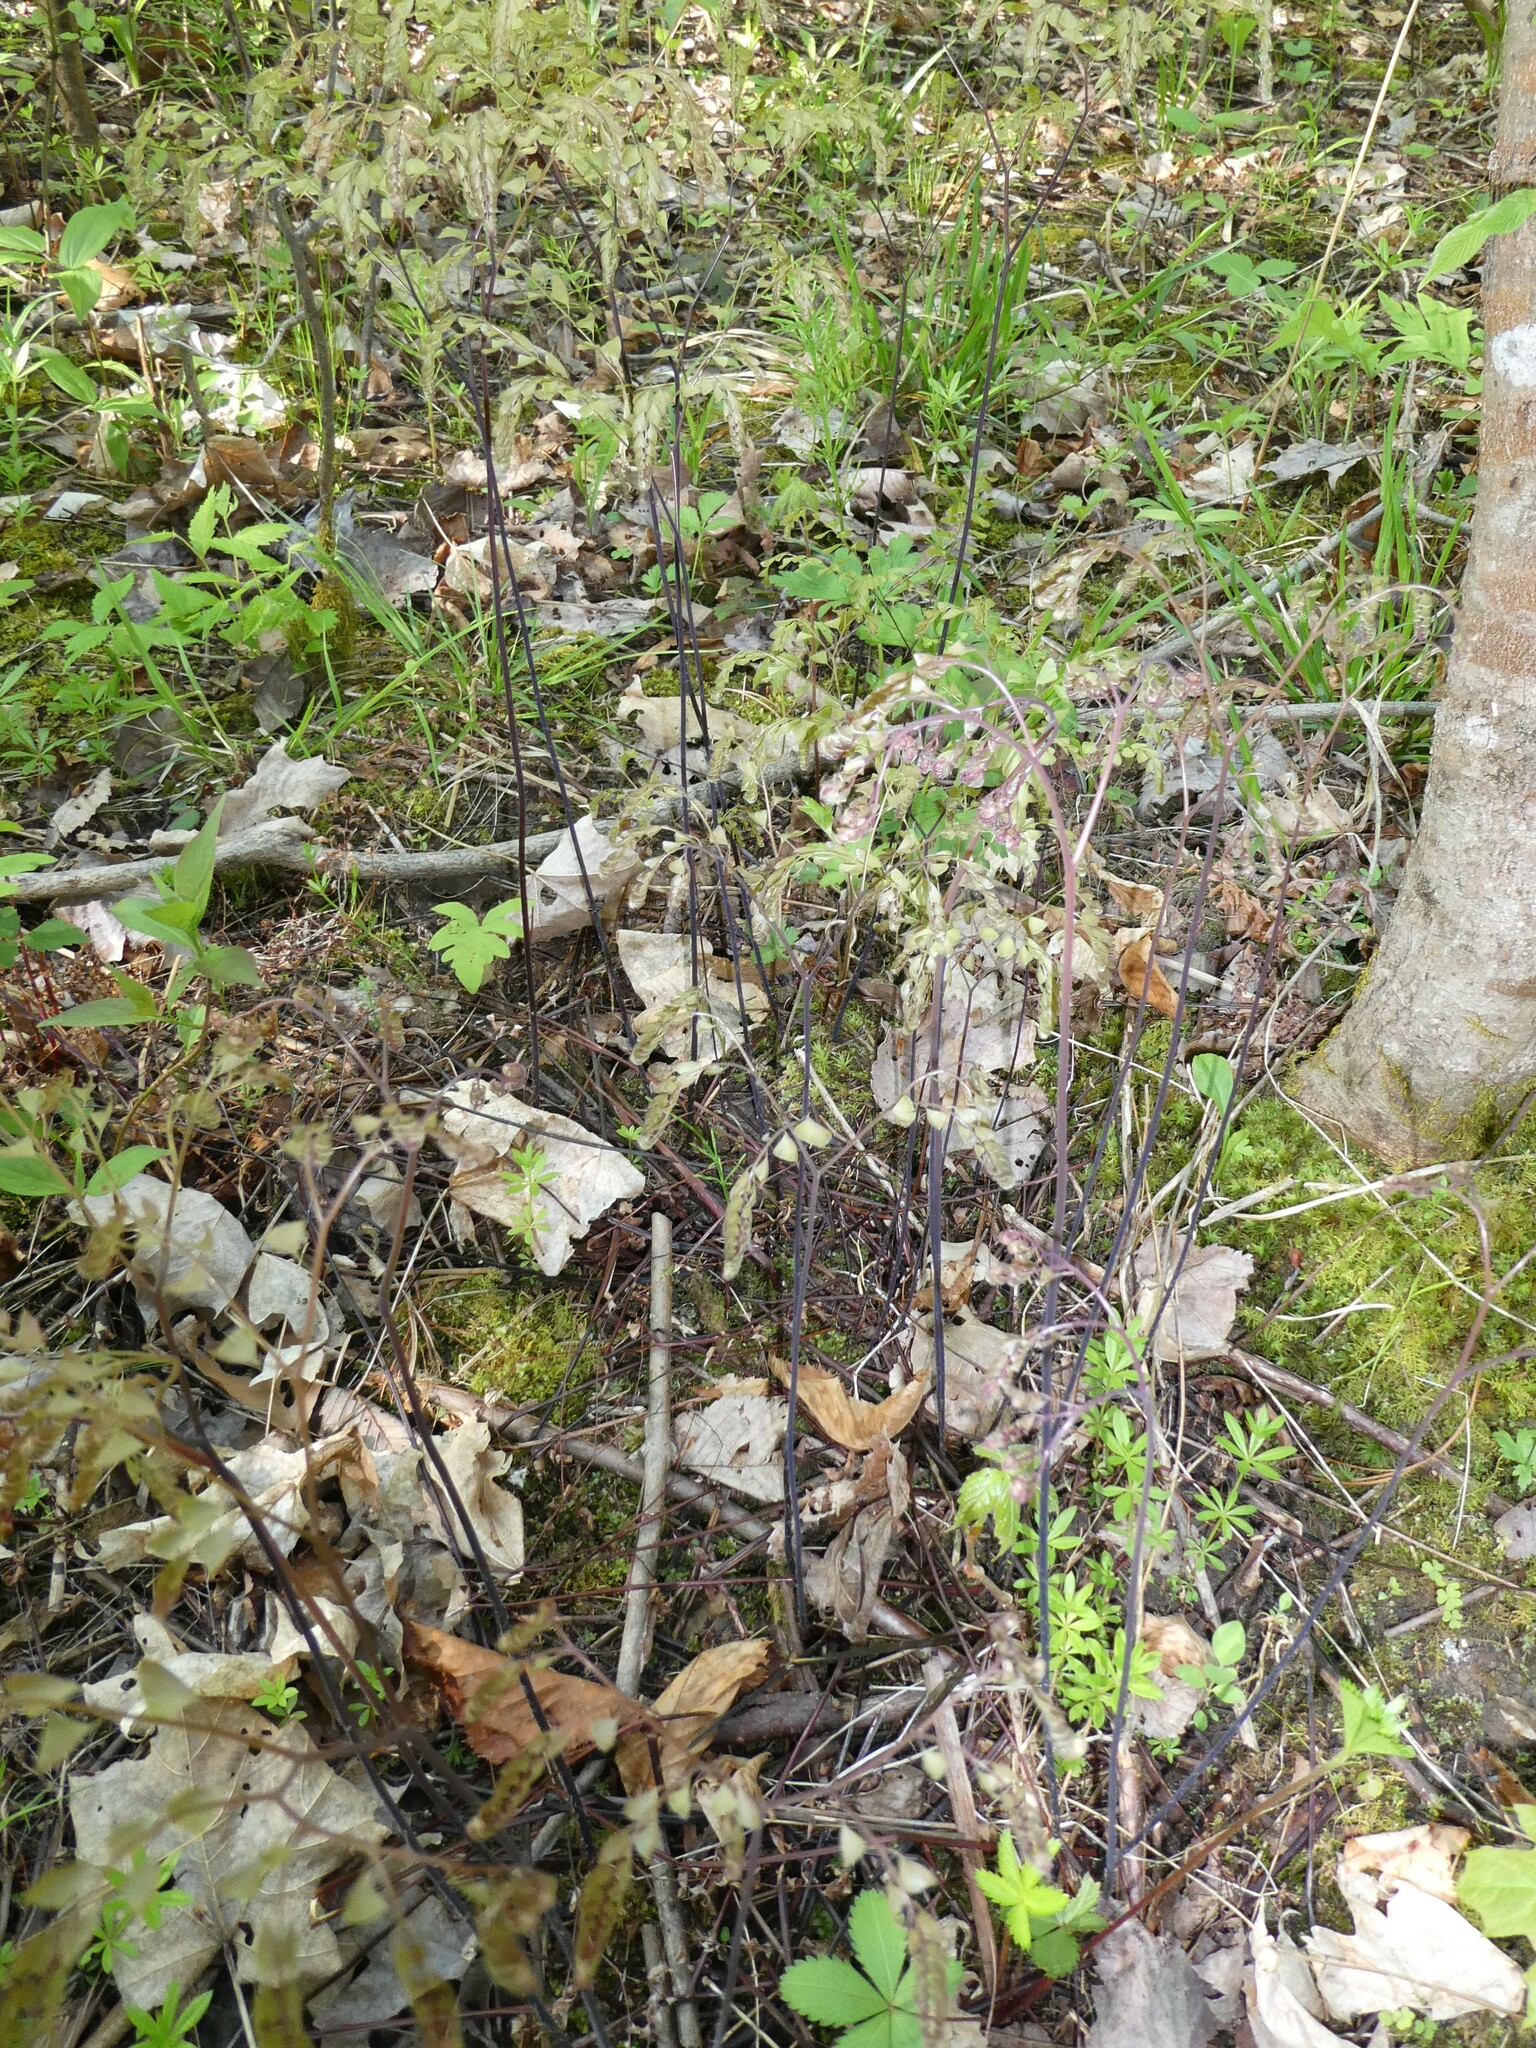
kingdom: Plantae
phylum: Tracheophyta
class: Polypodiopsida
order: Polypodiales
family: Pteridaceae
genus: Adiantum
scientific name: Adiantum pedatum
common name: Five-finger fern
